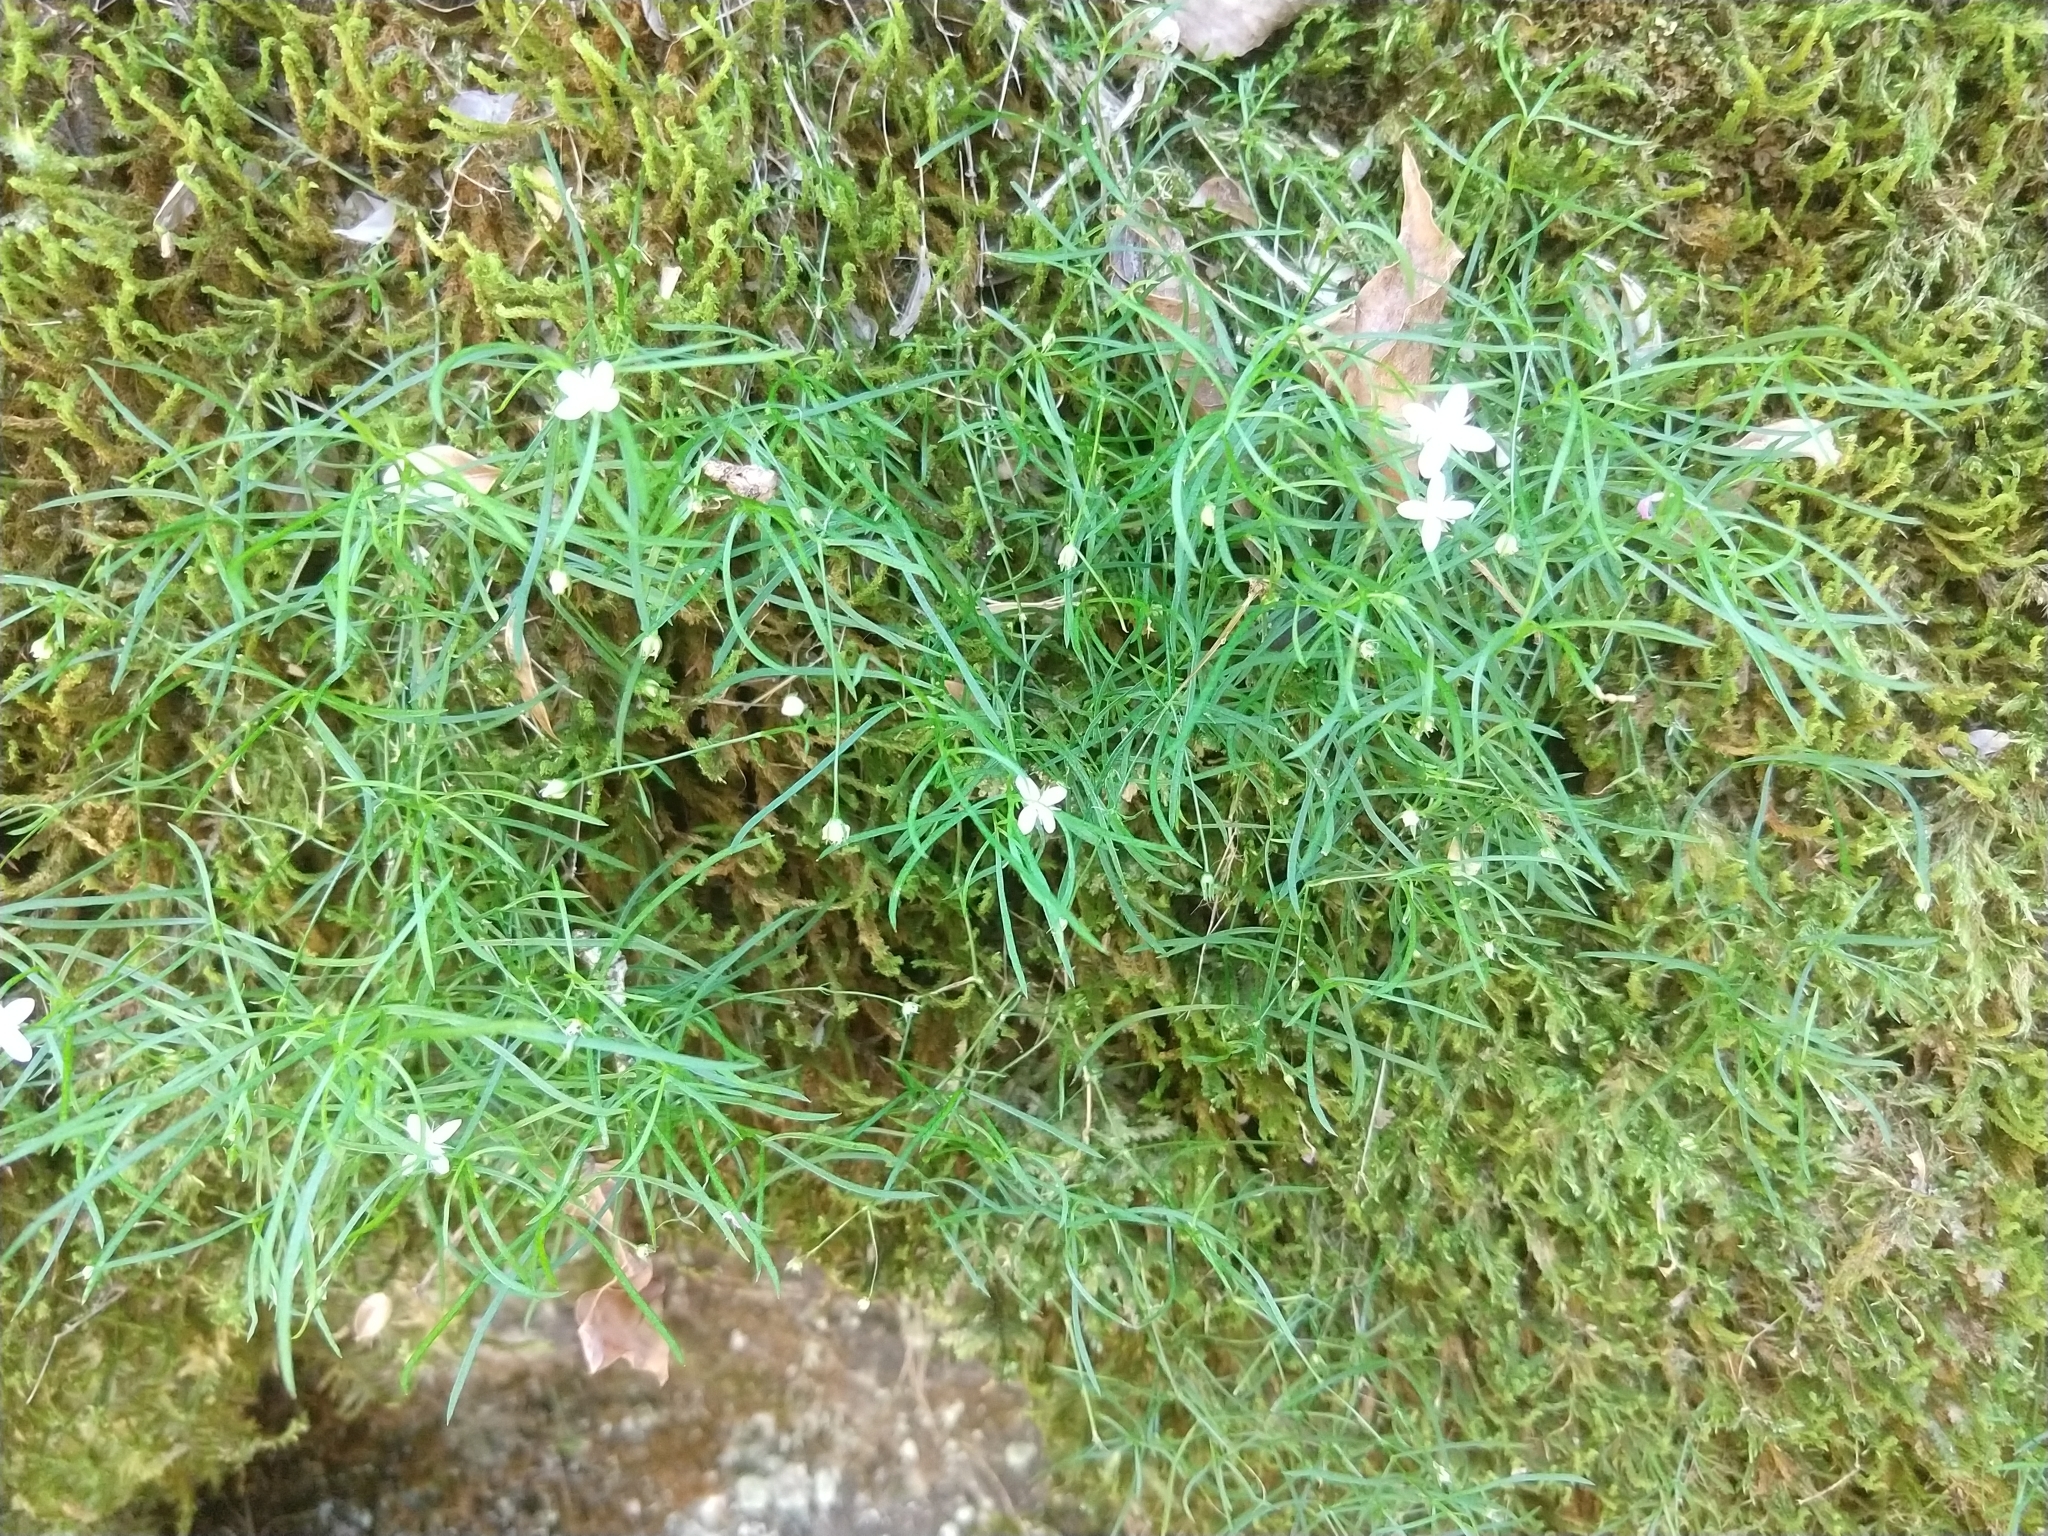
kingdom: Plantae
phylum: Tracheophyta
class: Magnoliopsida
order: Caryophyllales
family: Caryophyllaceae
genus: Moehringia
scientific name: Moehringia muscosa
